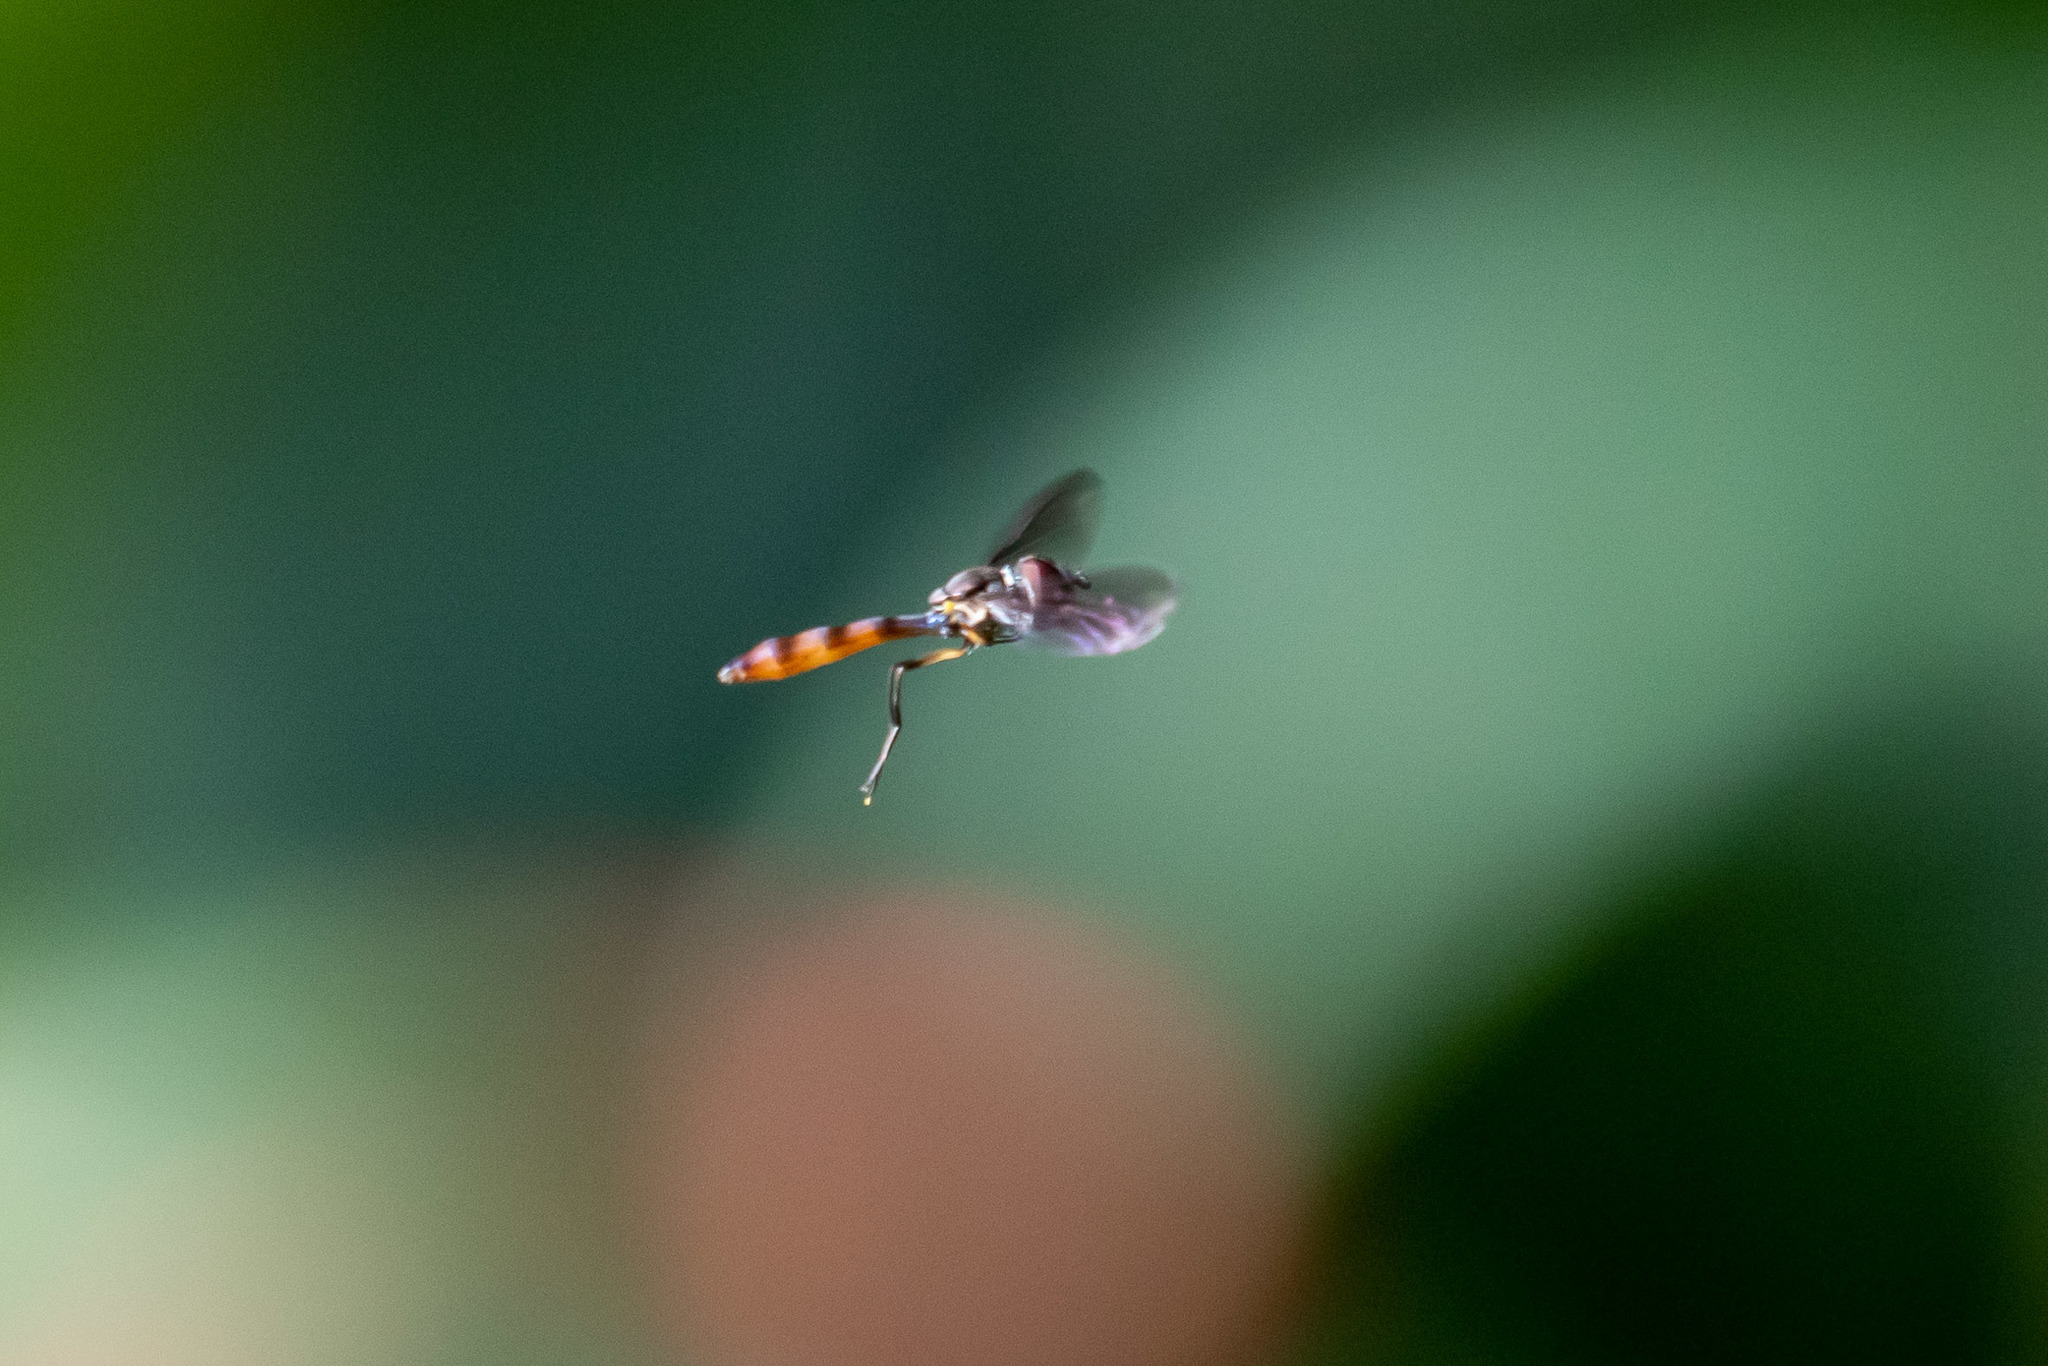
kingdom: Animalia
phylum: Arthropoda
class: Insecta
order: Diptera
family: Syrphidae
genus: Ocyptamus
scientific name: Ocyptamus fuscipennis
